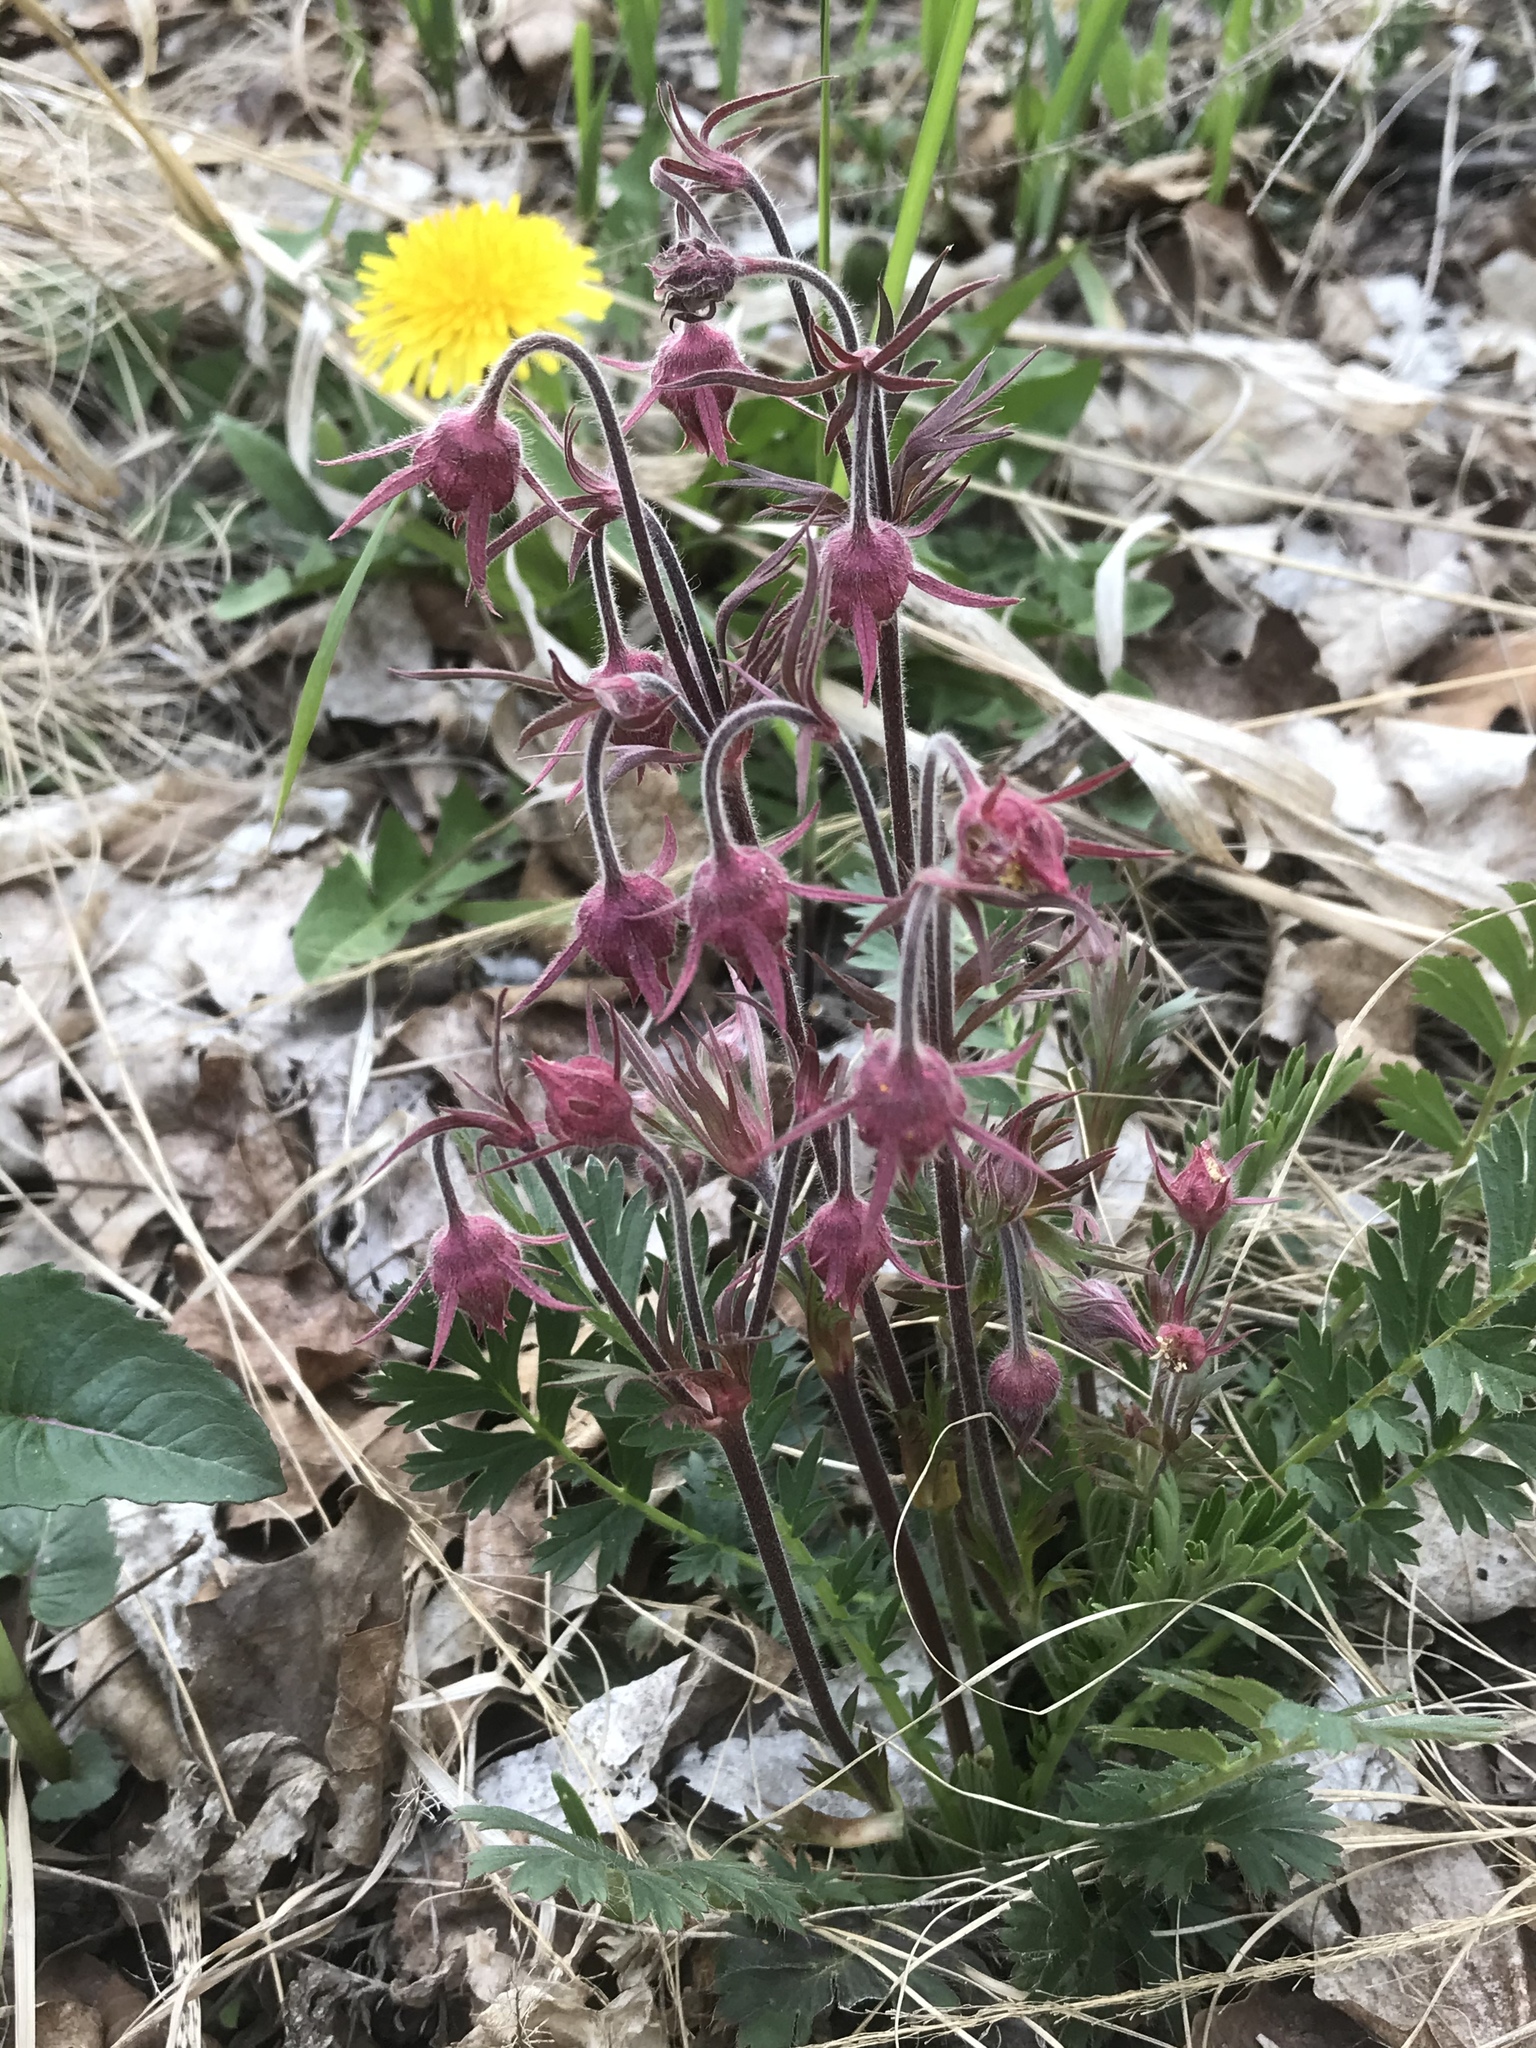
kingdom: Plantae
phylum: Tracheophyta
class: Magnoliopsida
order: Rosales
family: Rosaceae
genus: Geum
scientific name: Geum triflorum
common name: Old man's whiskers
